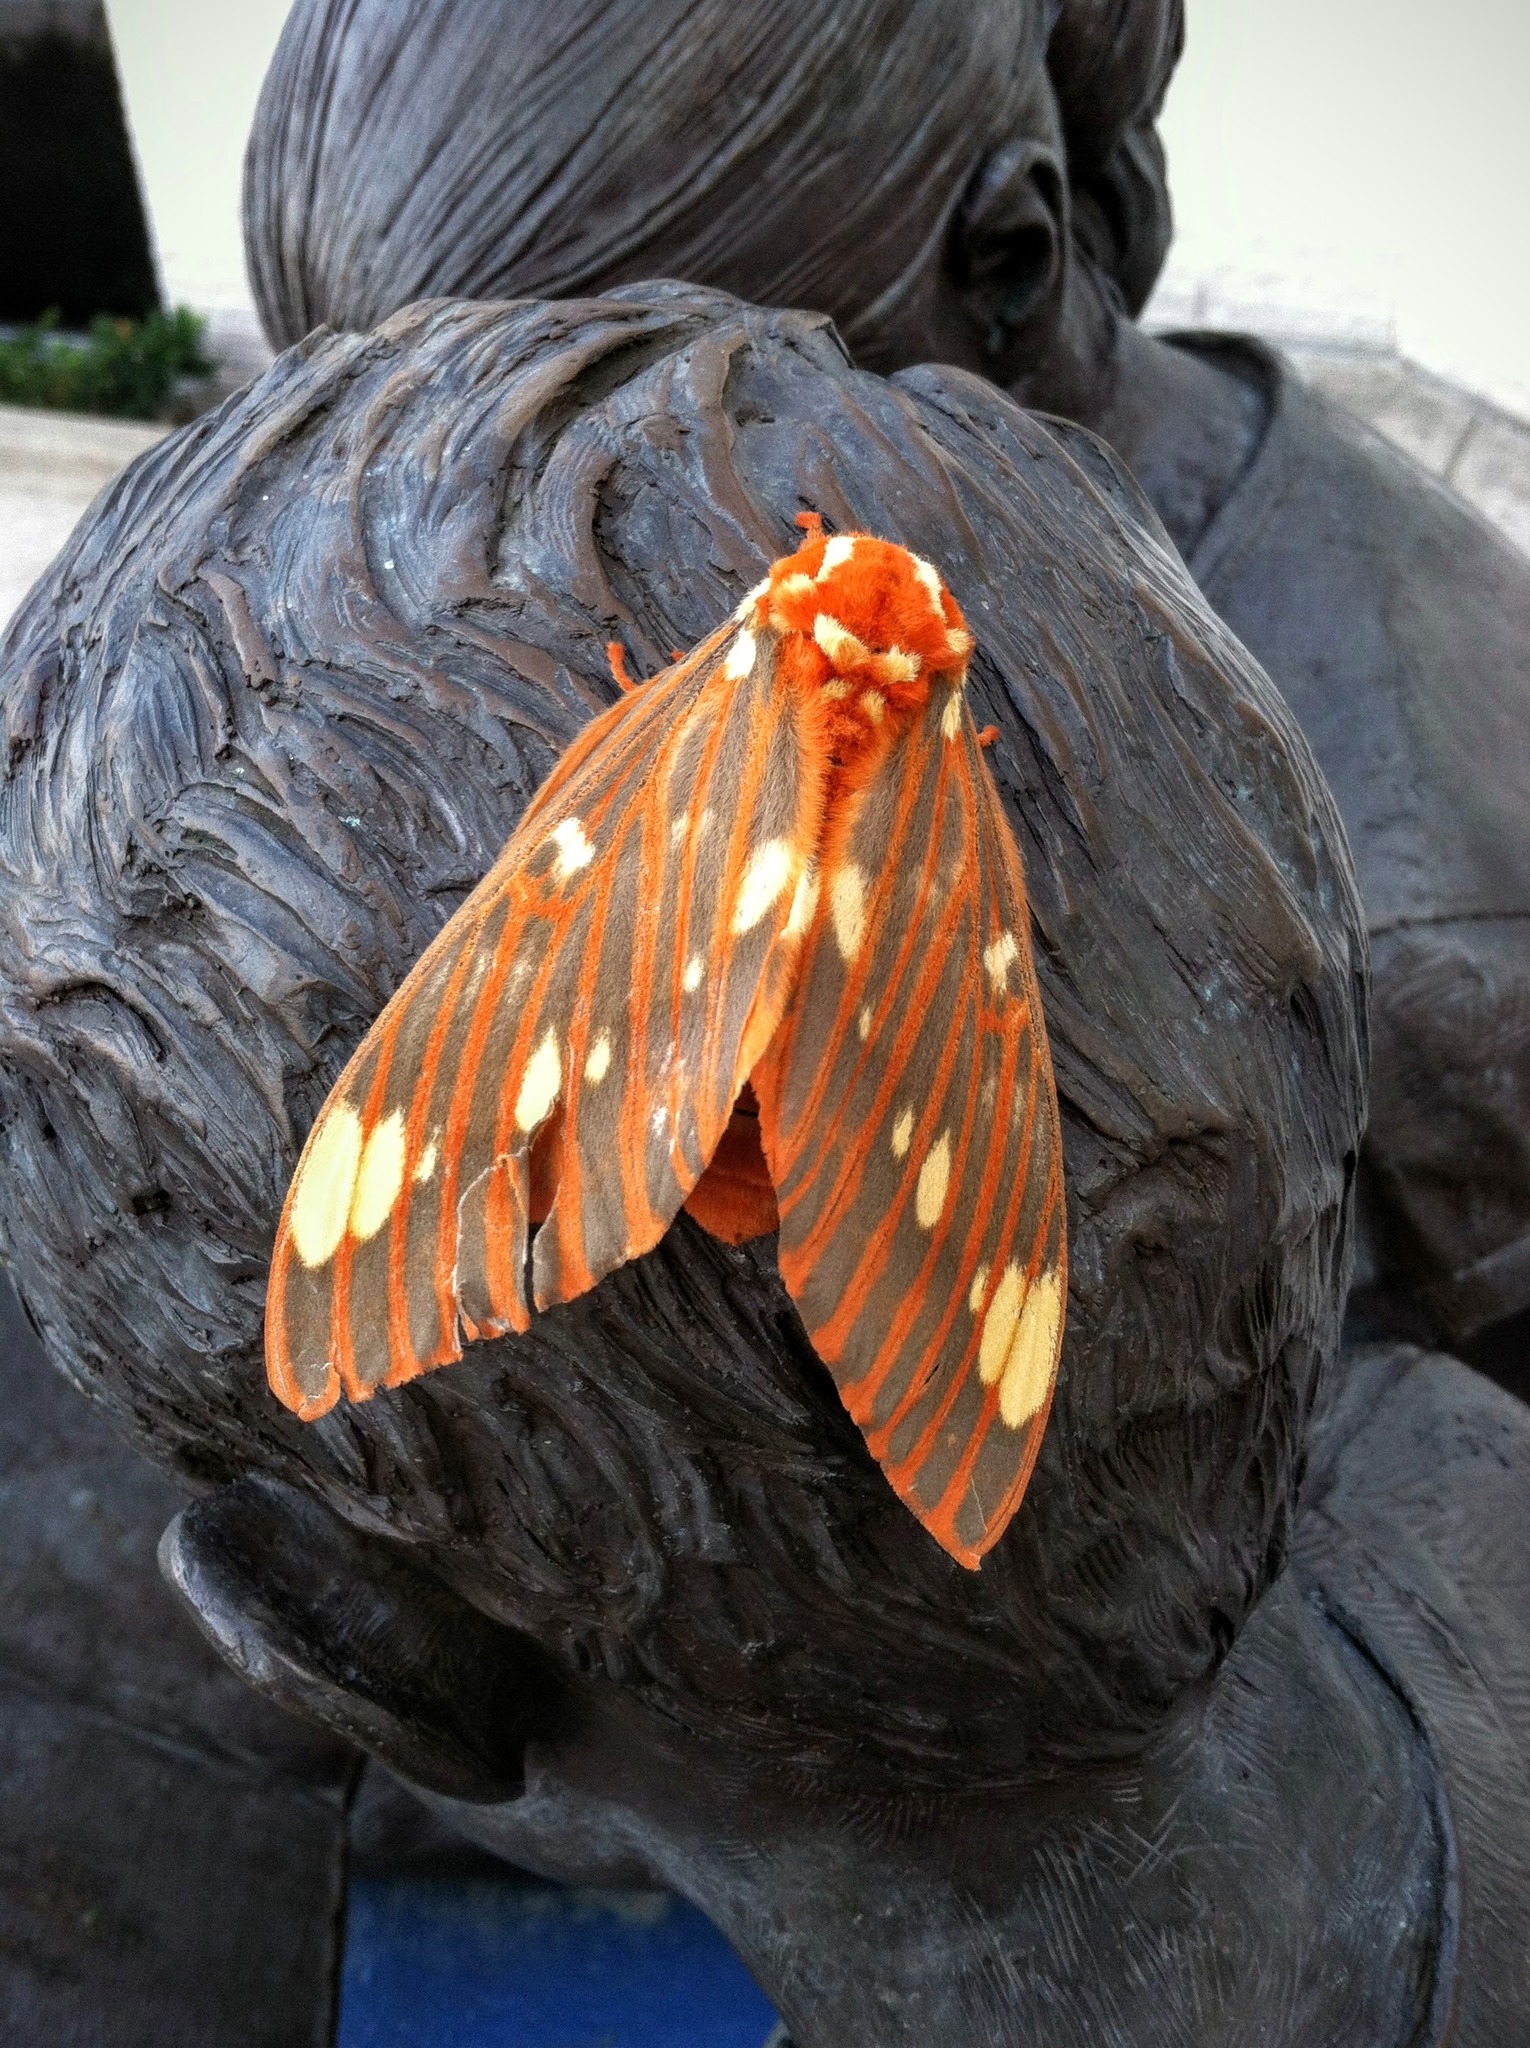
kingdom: Animalia
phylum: Arthropoda
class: Insecta
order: Lepidoptera
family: Saturniidae
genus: Citheronia
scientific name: Citheronia regalis
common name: Hickory horned devil
